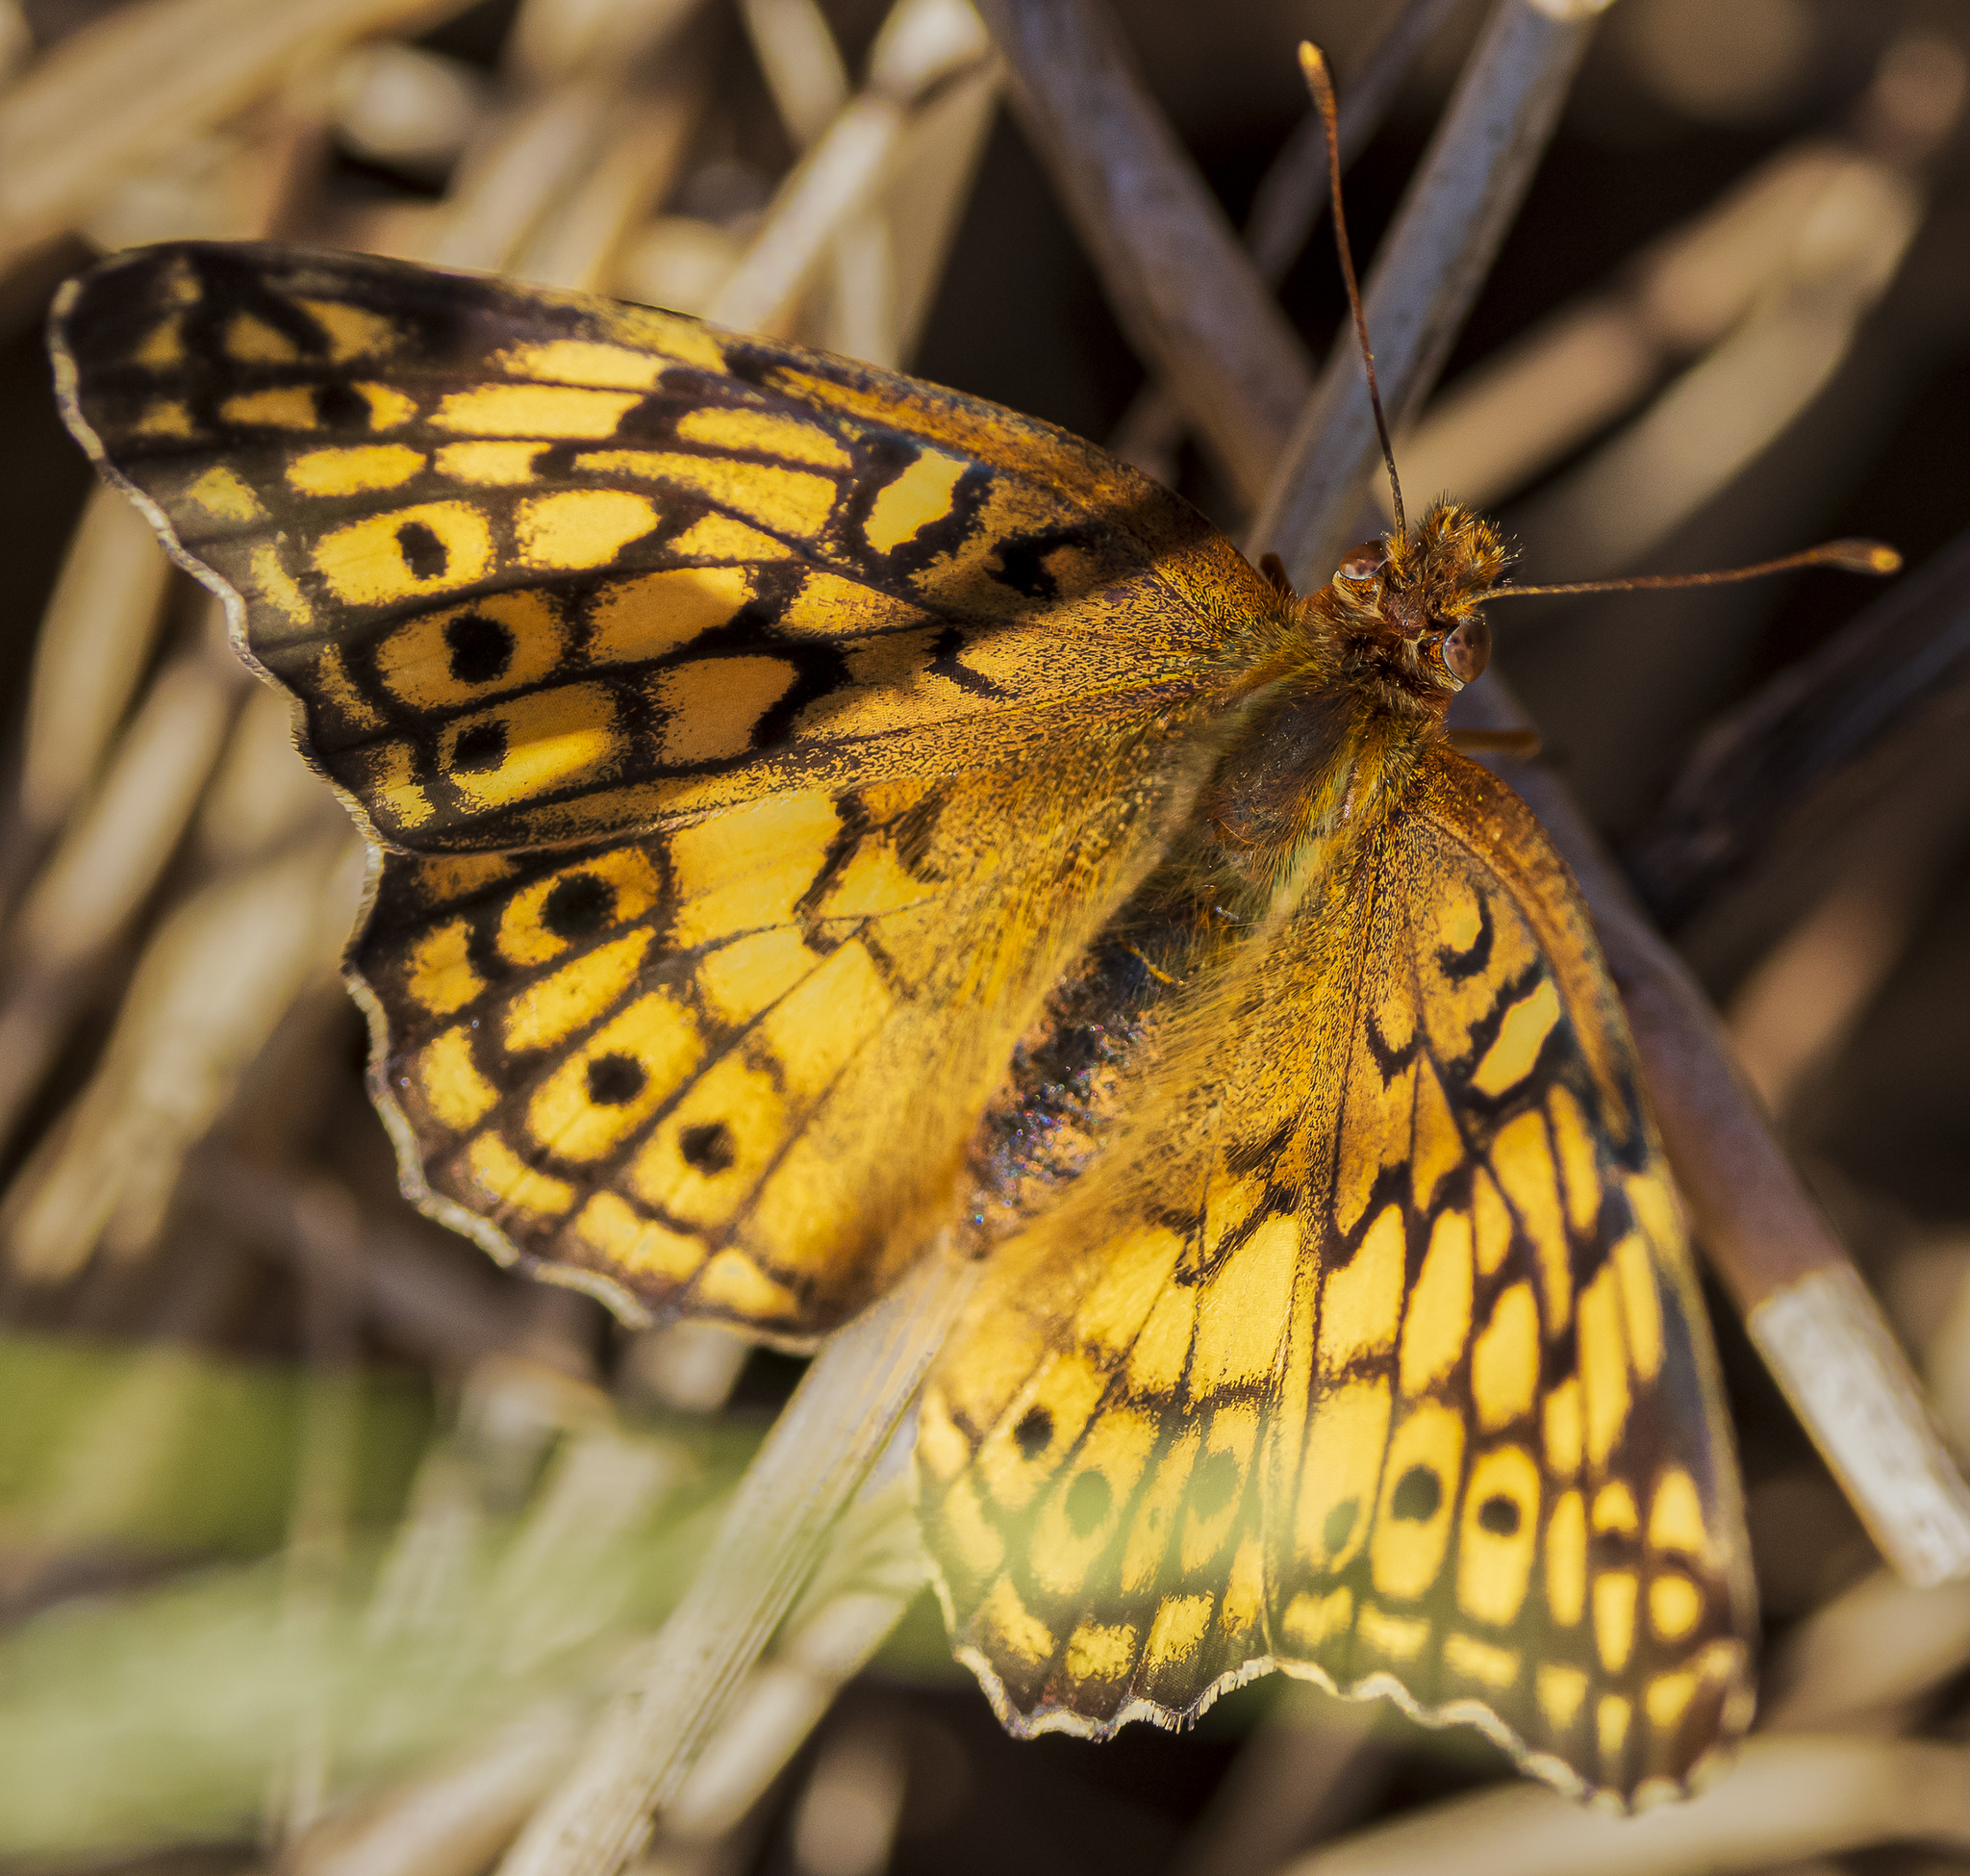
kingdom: Animalia
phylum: Arthropoda
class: Insecta
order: Lepidoptera
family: Nymphalidae
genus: Euptoieta
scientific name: Euptoieta claudia
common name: Variegated fritillary
